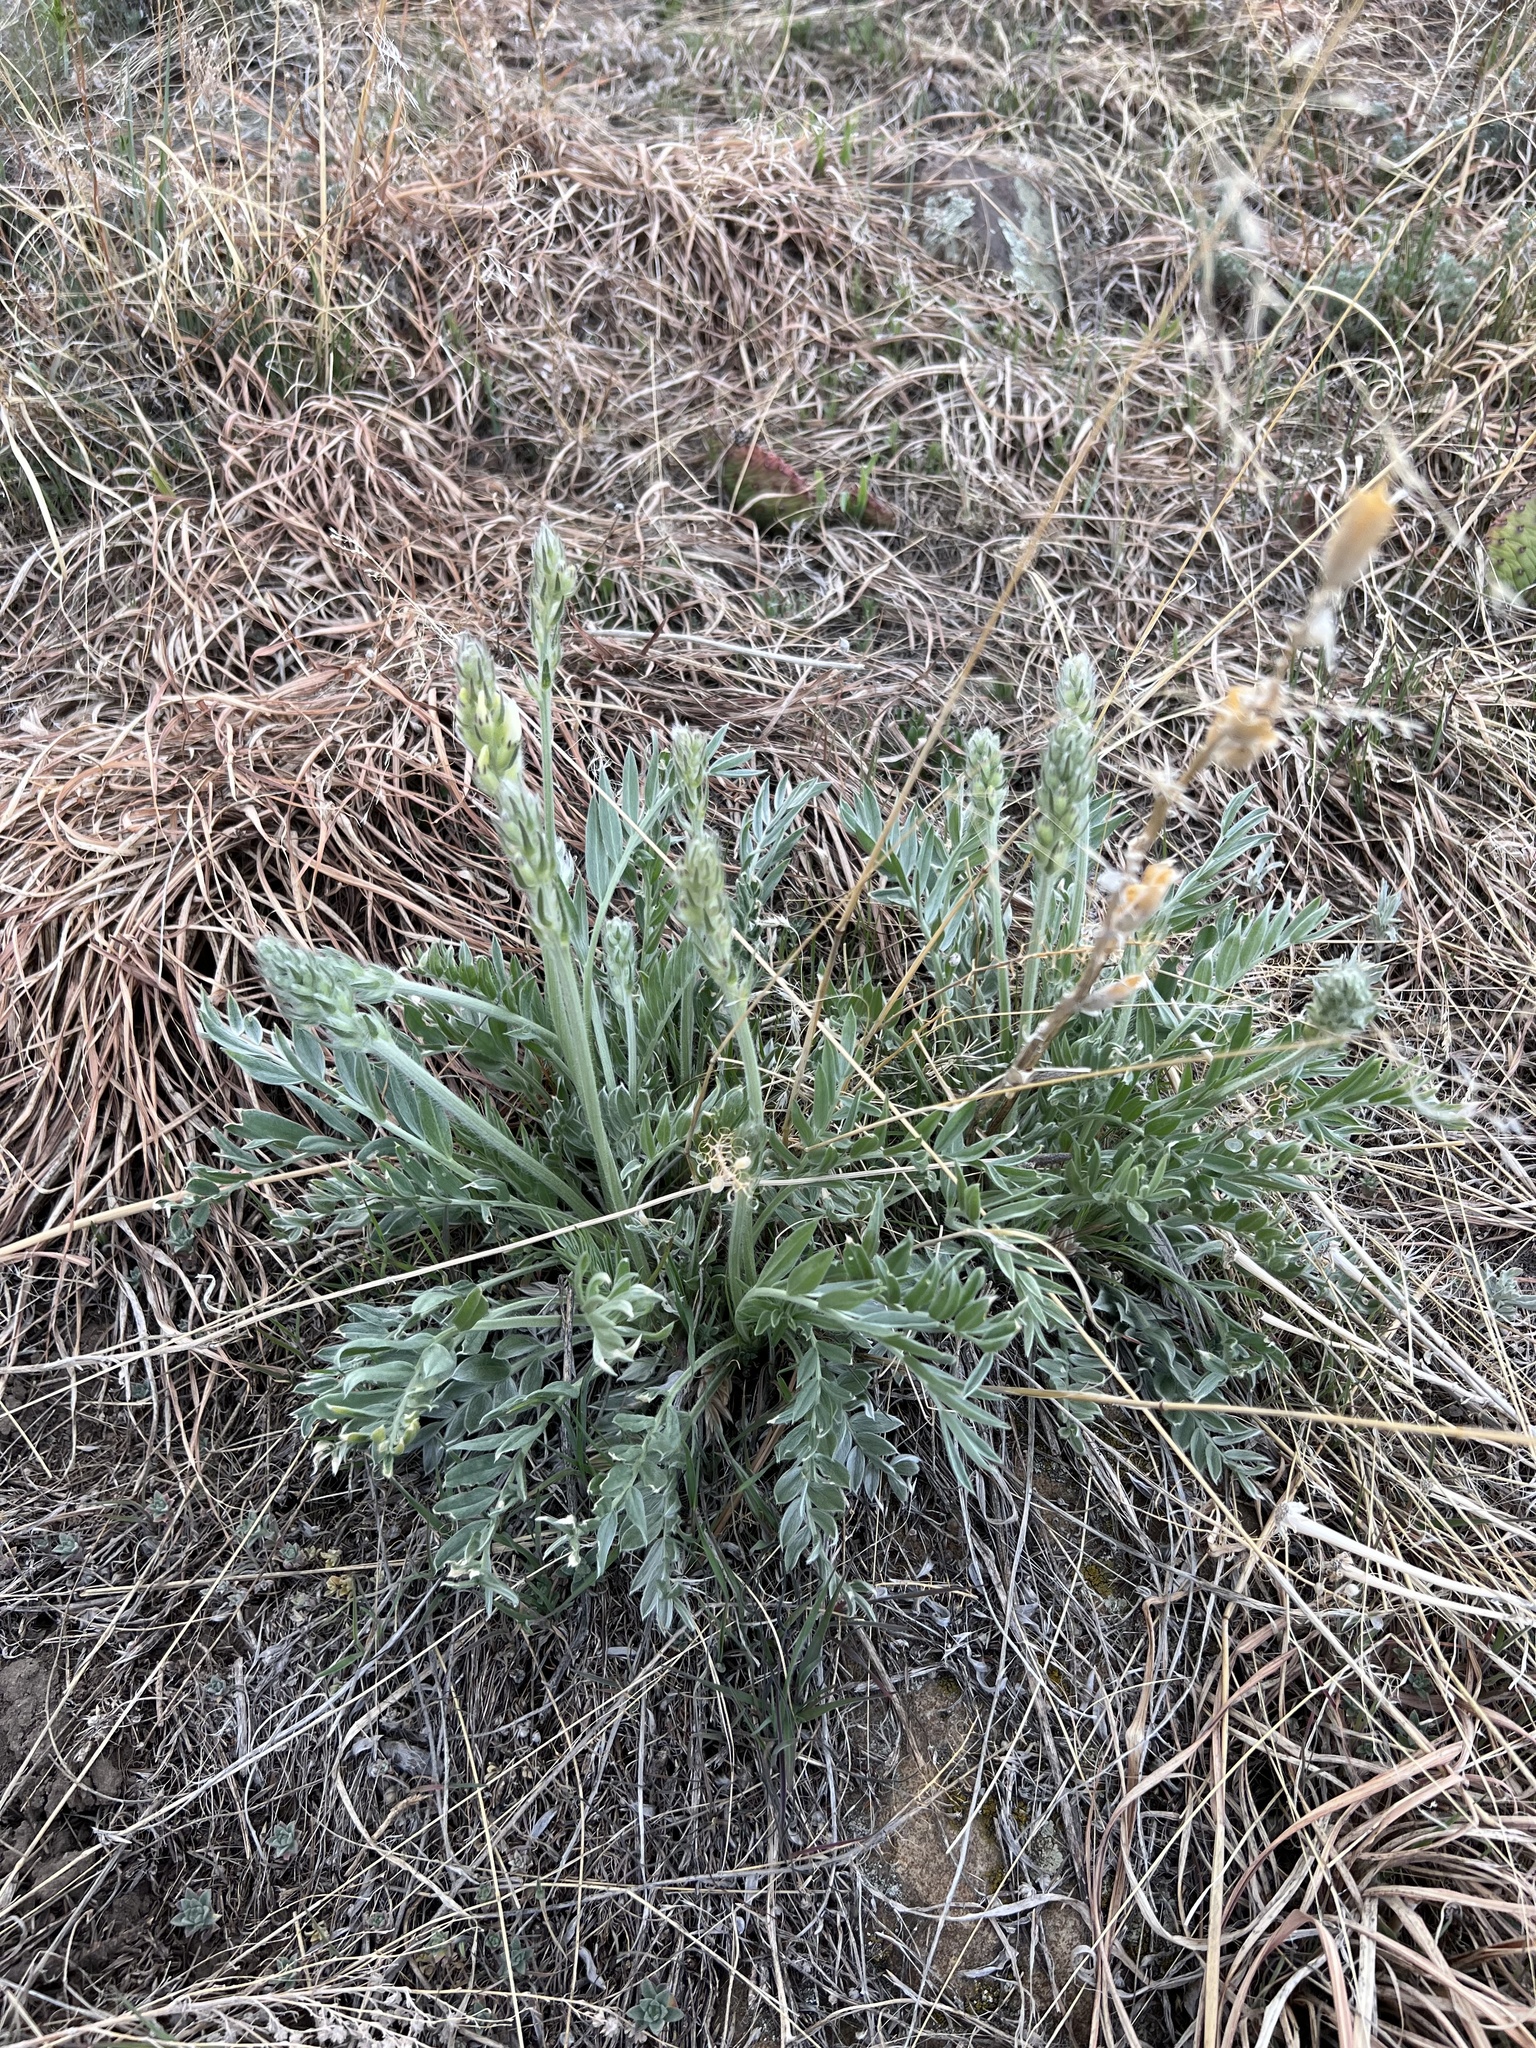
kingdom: Plantae
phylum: Tracheophyta
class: Magnoliopsida
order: Fabales
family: Fabaceae
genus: Oxytropis
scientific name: Oxytropis sericea
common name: Silky locoweed
